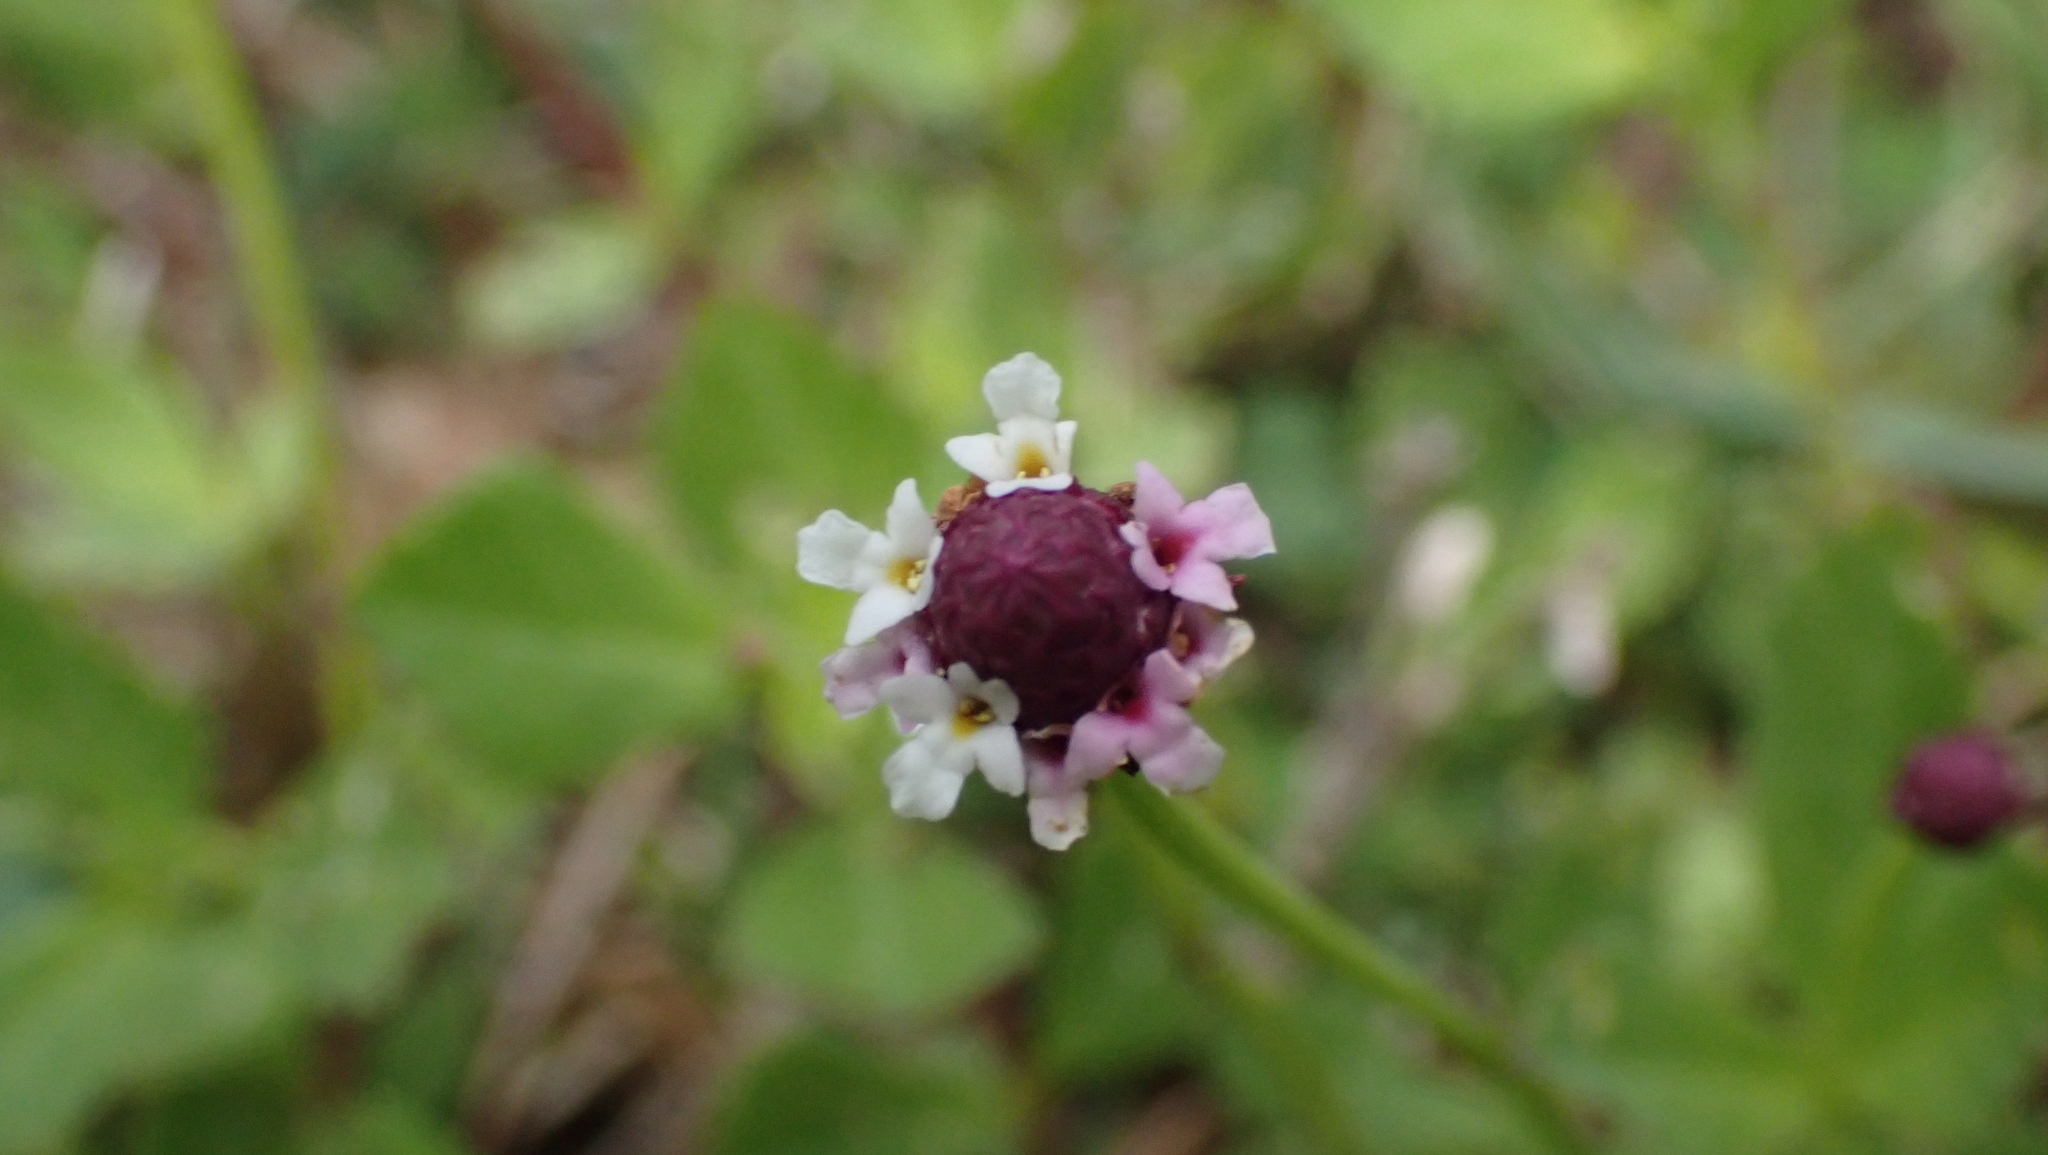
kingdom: Plantae
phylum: Tracheophyta
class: Magnoliopsida
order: Lamiales
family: Verbenaceae
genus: Phyla
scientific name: Phyla nodiflora
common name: Frogfruit
